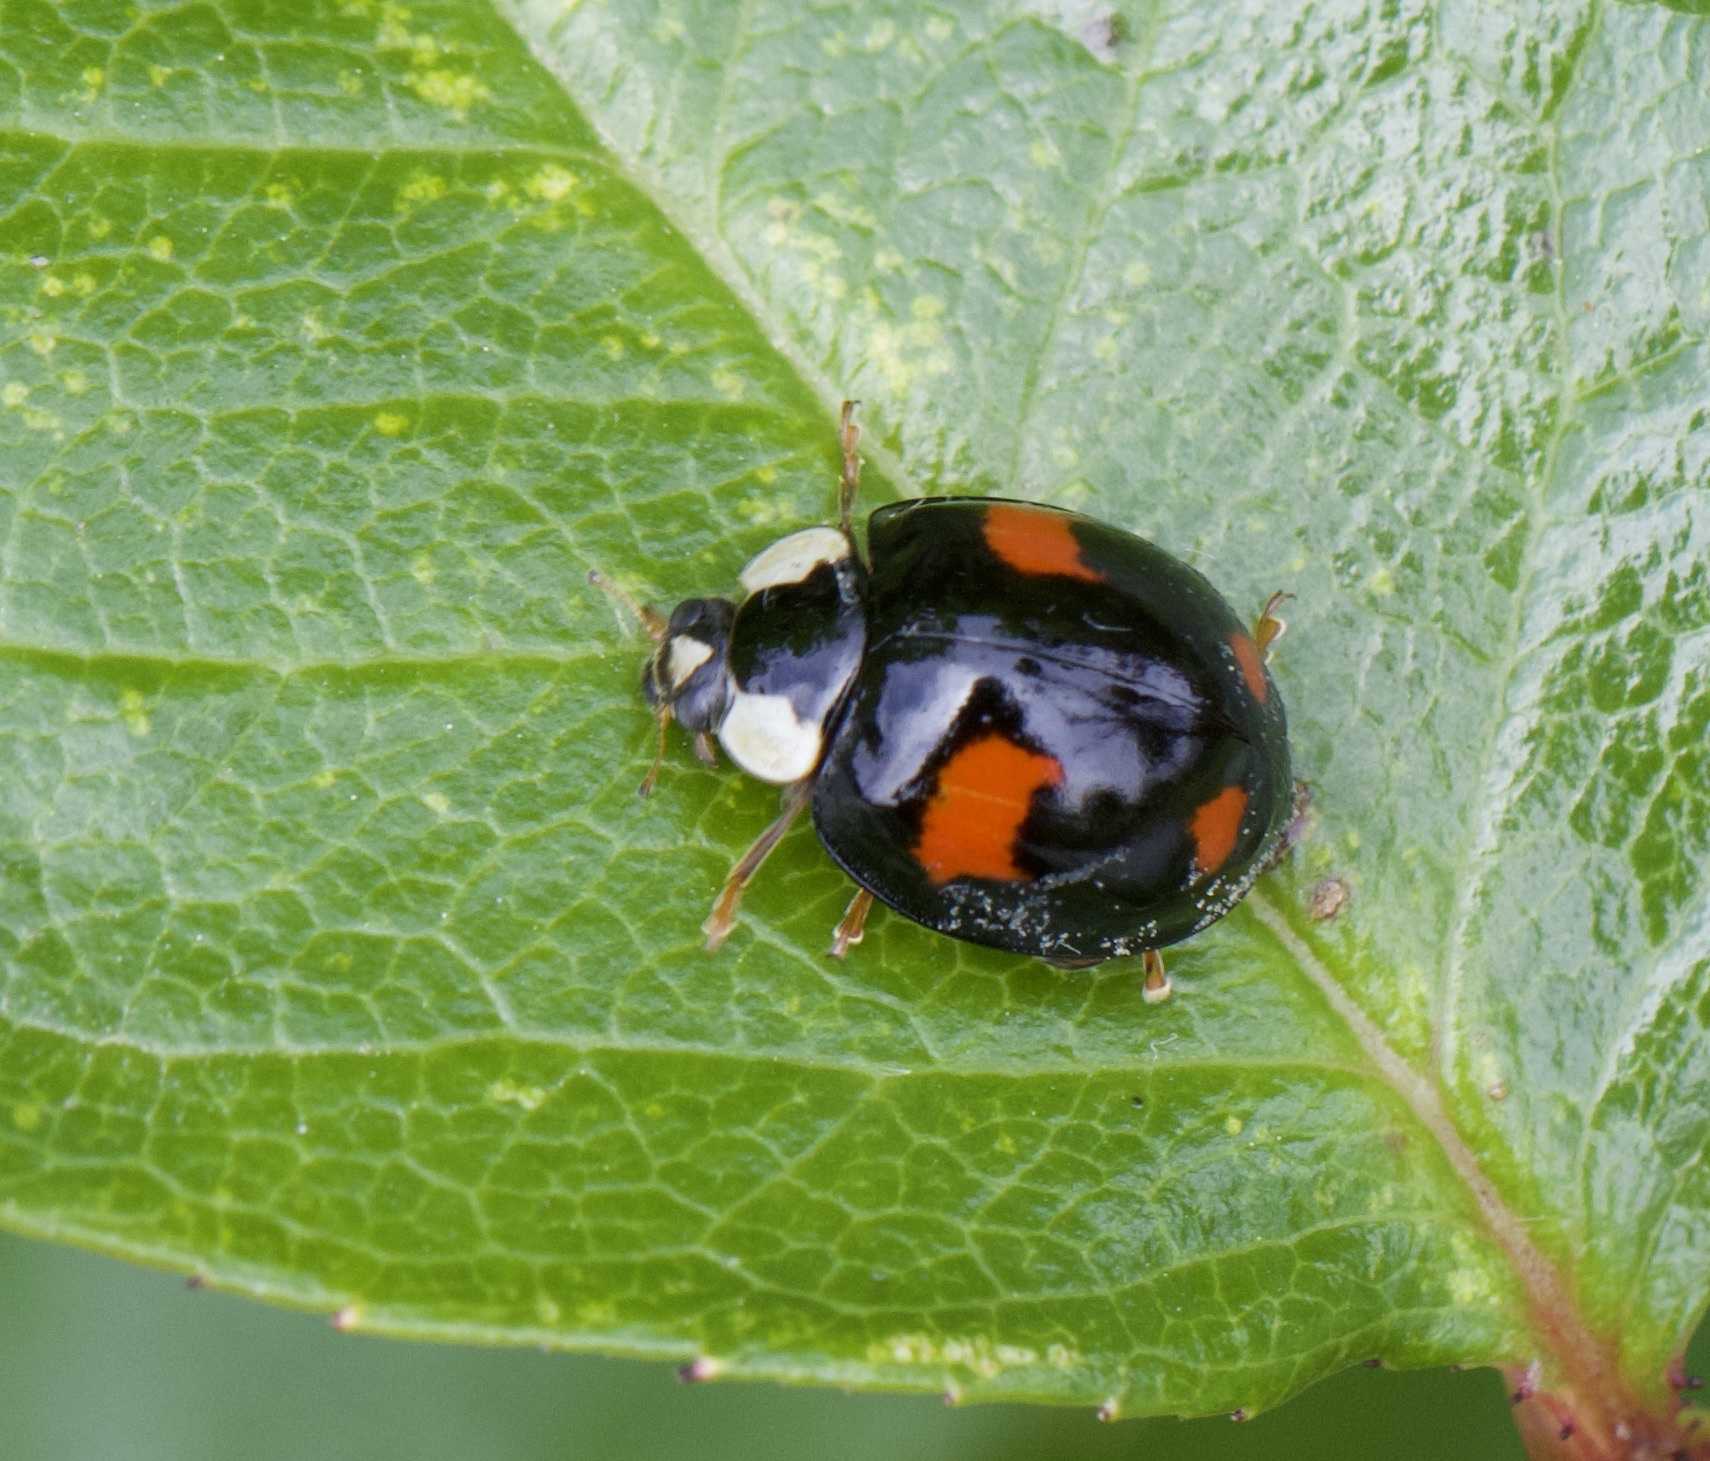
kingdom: Animalia
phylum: Arthropoda
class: Insecta
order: Coleoptera
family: Coccinellidae
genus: Harmonia
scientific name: Harmonia axyridis
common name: Harlequin ladybird
